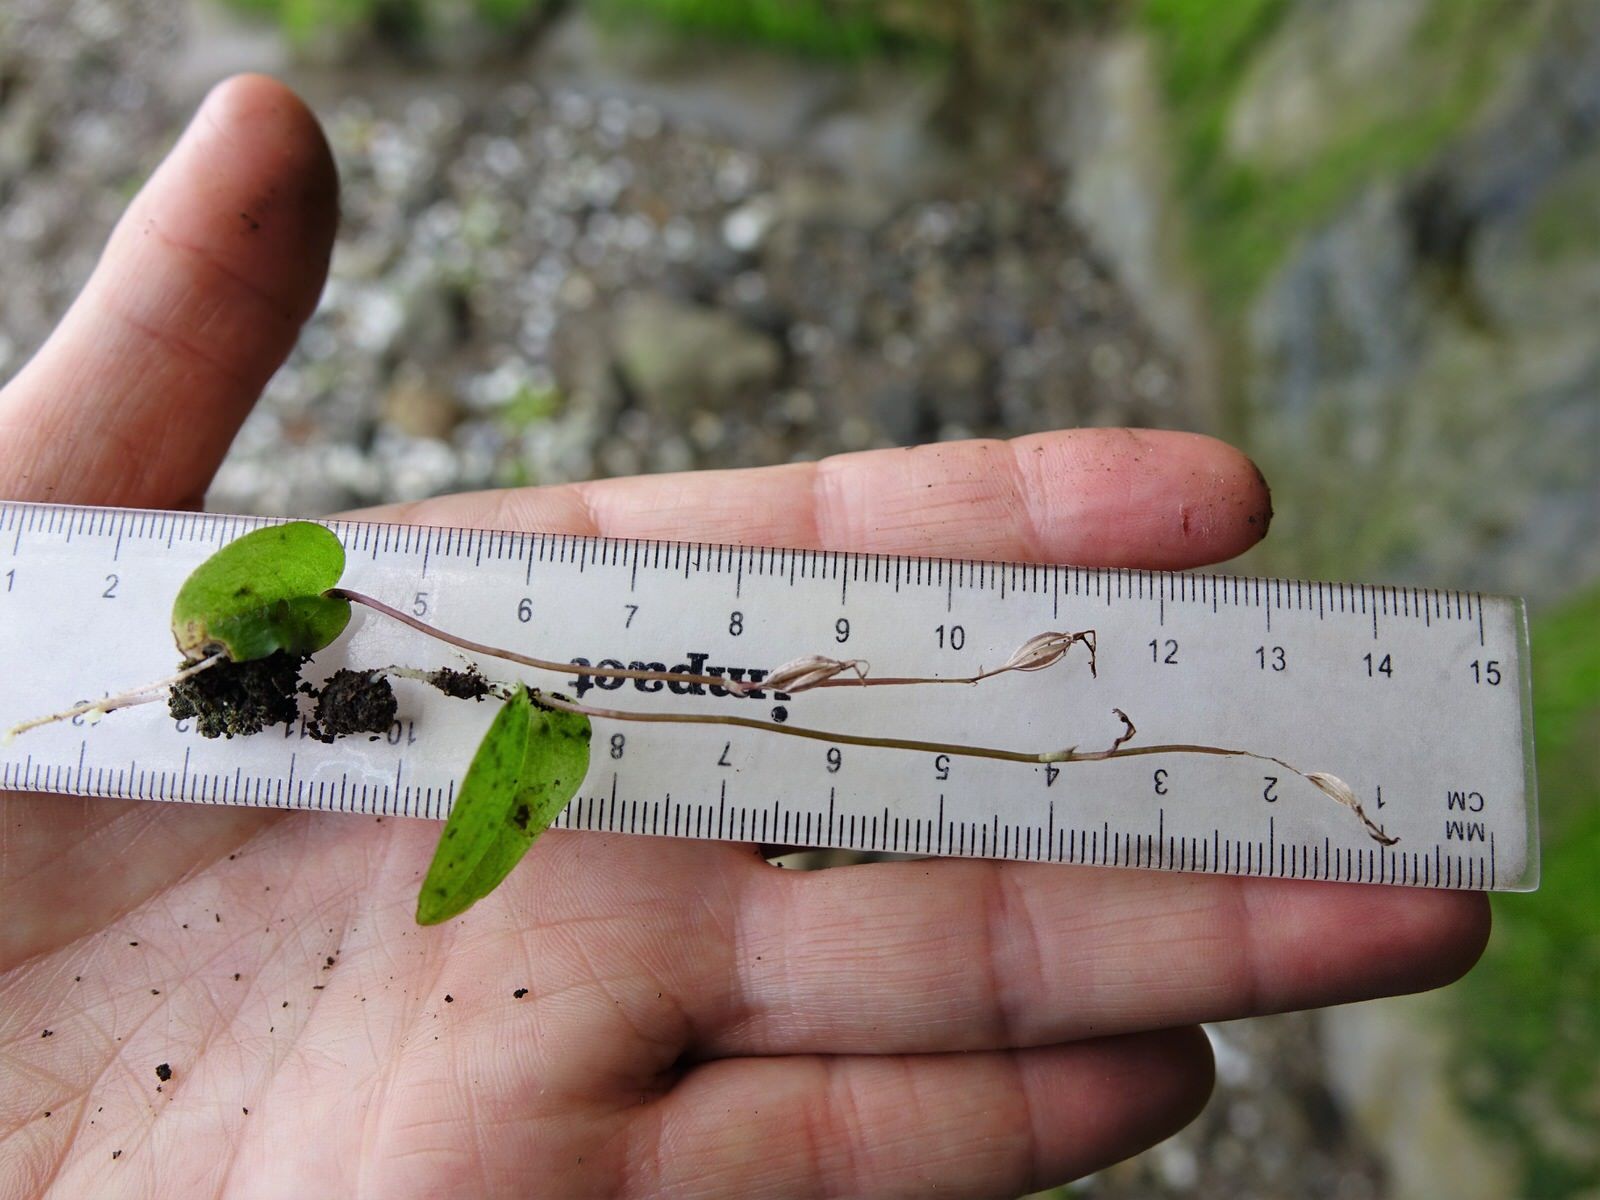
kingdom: Plantae
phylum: Tracheophyta
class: Liliopsida
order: Asparagales
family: Orchidaceae
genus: Cyrtostylis
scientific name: Cyrtostylis oblonga
